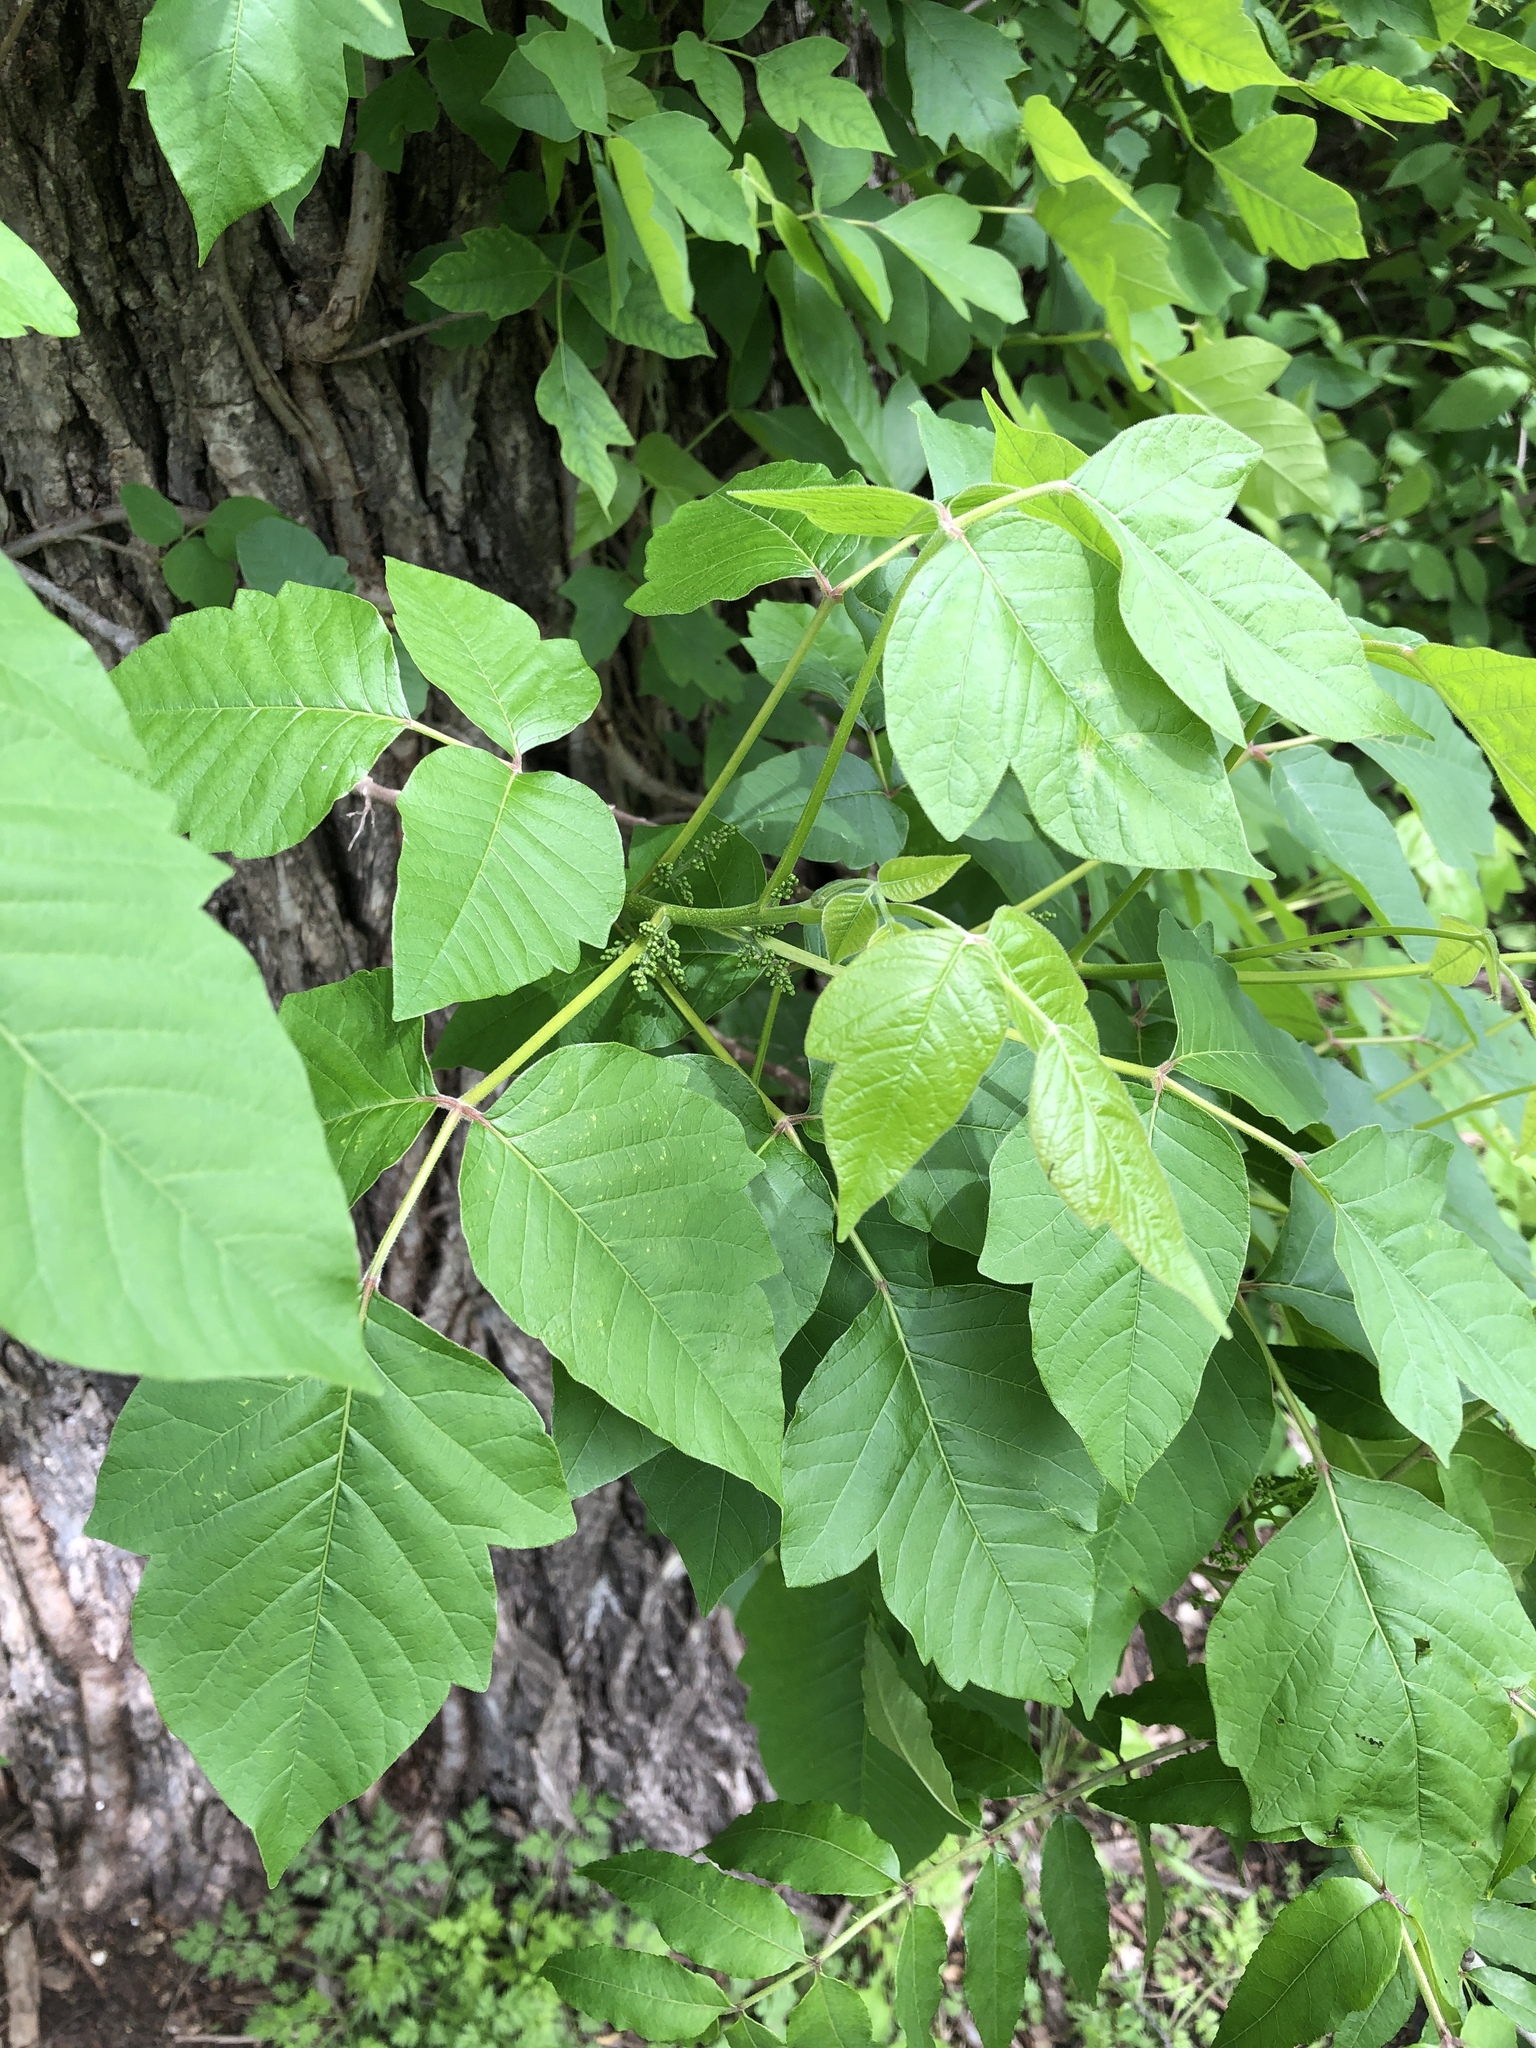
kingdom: Plantae
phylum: Tracheophyta
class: Magnoliopsida
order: Sapindales
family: Anacardiaceae
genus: Toxicodendron
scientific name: Toxicodendron radicans
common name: Poison ivy
